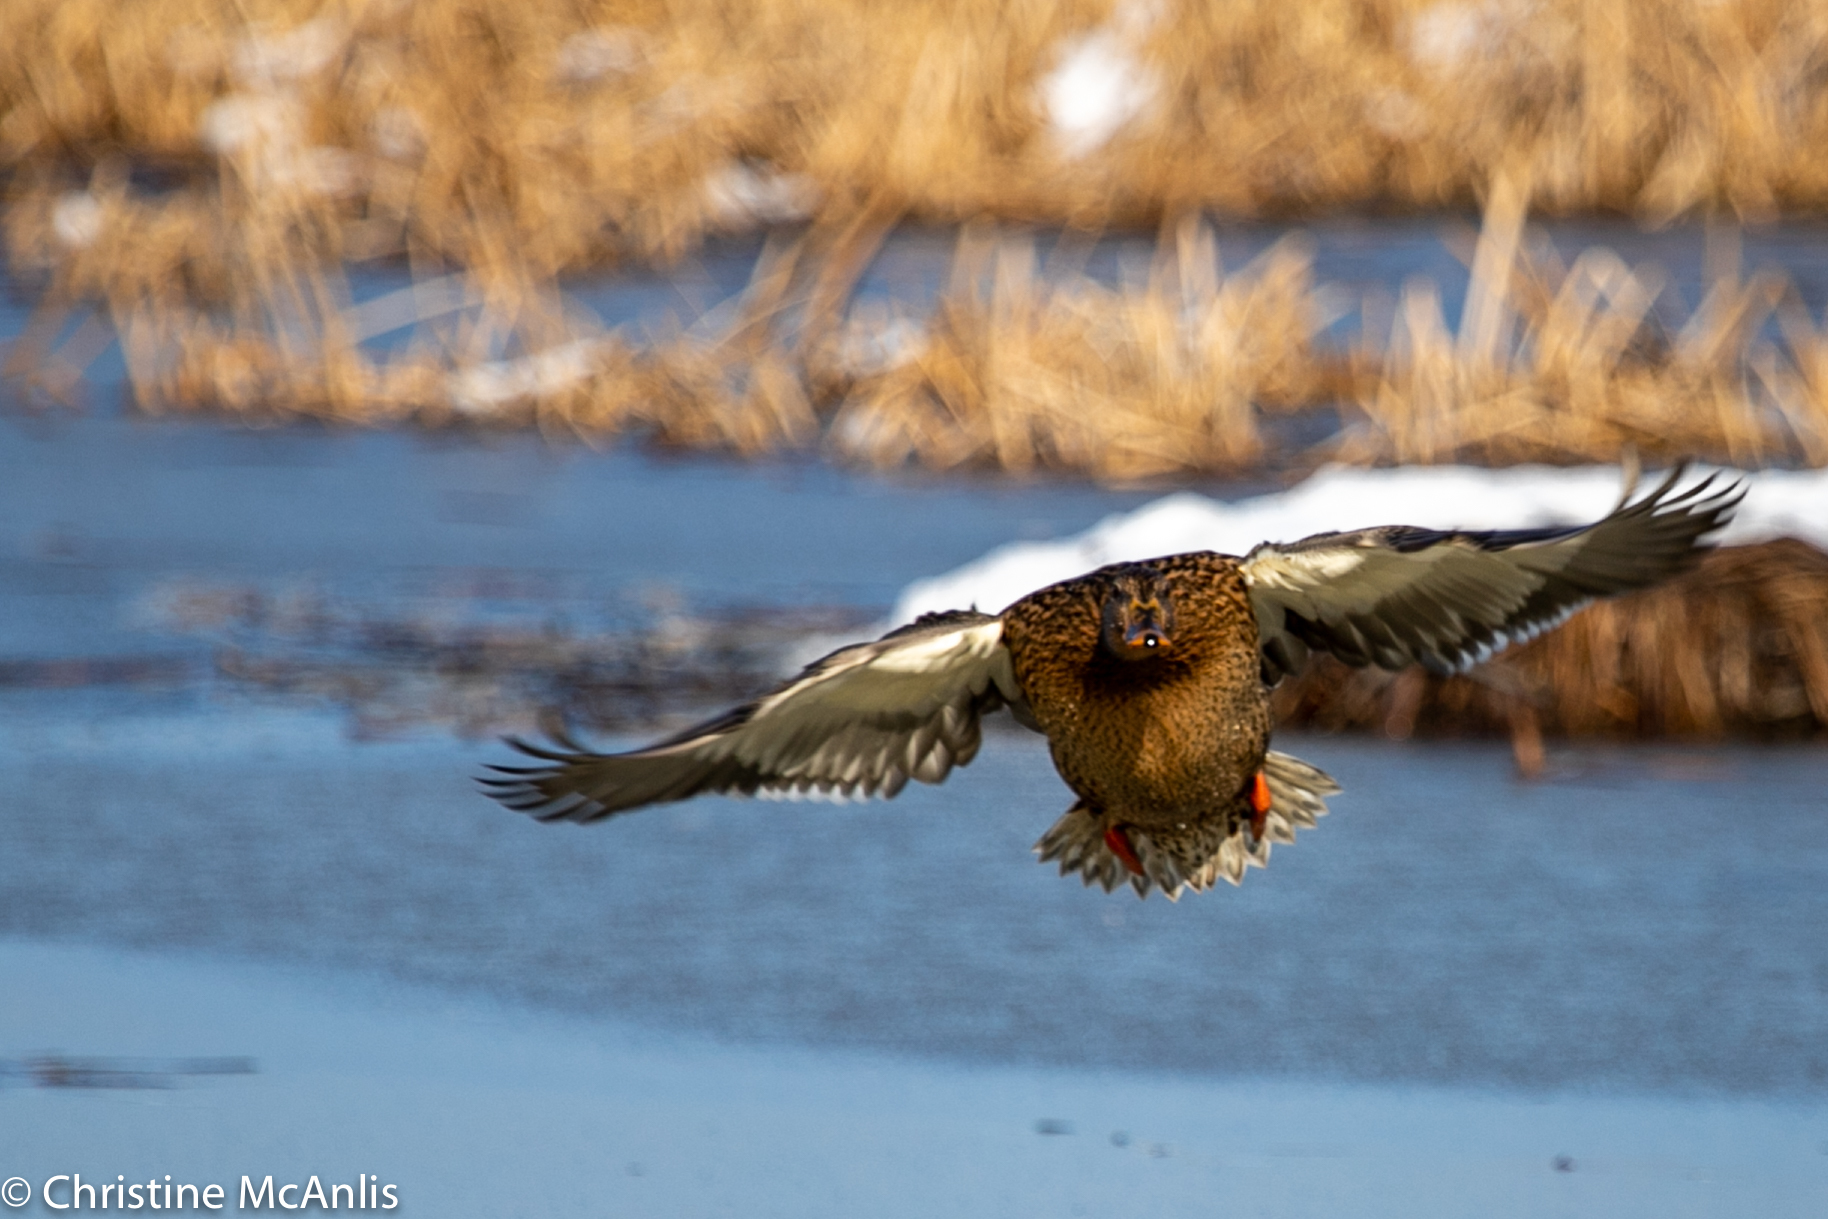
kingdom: Animalia
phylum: Chordata
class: Aves
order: Anseriformes
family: Anatidae
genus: Anas
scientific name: Anas platyrhynchos
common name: Mallard
